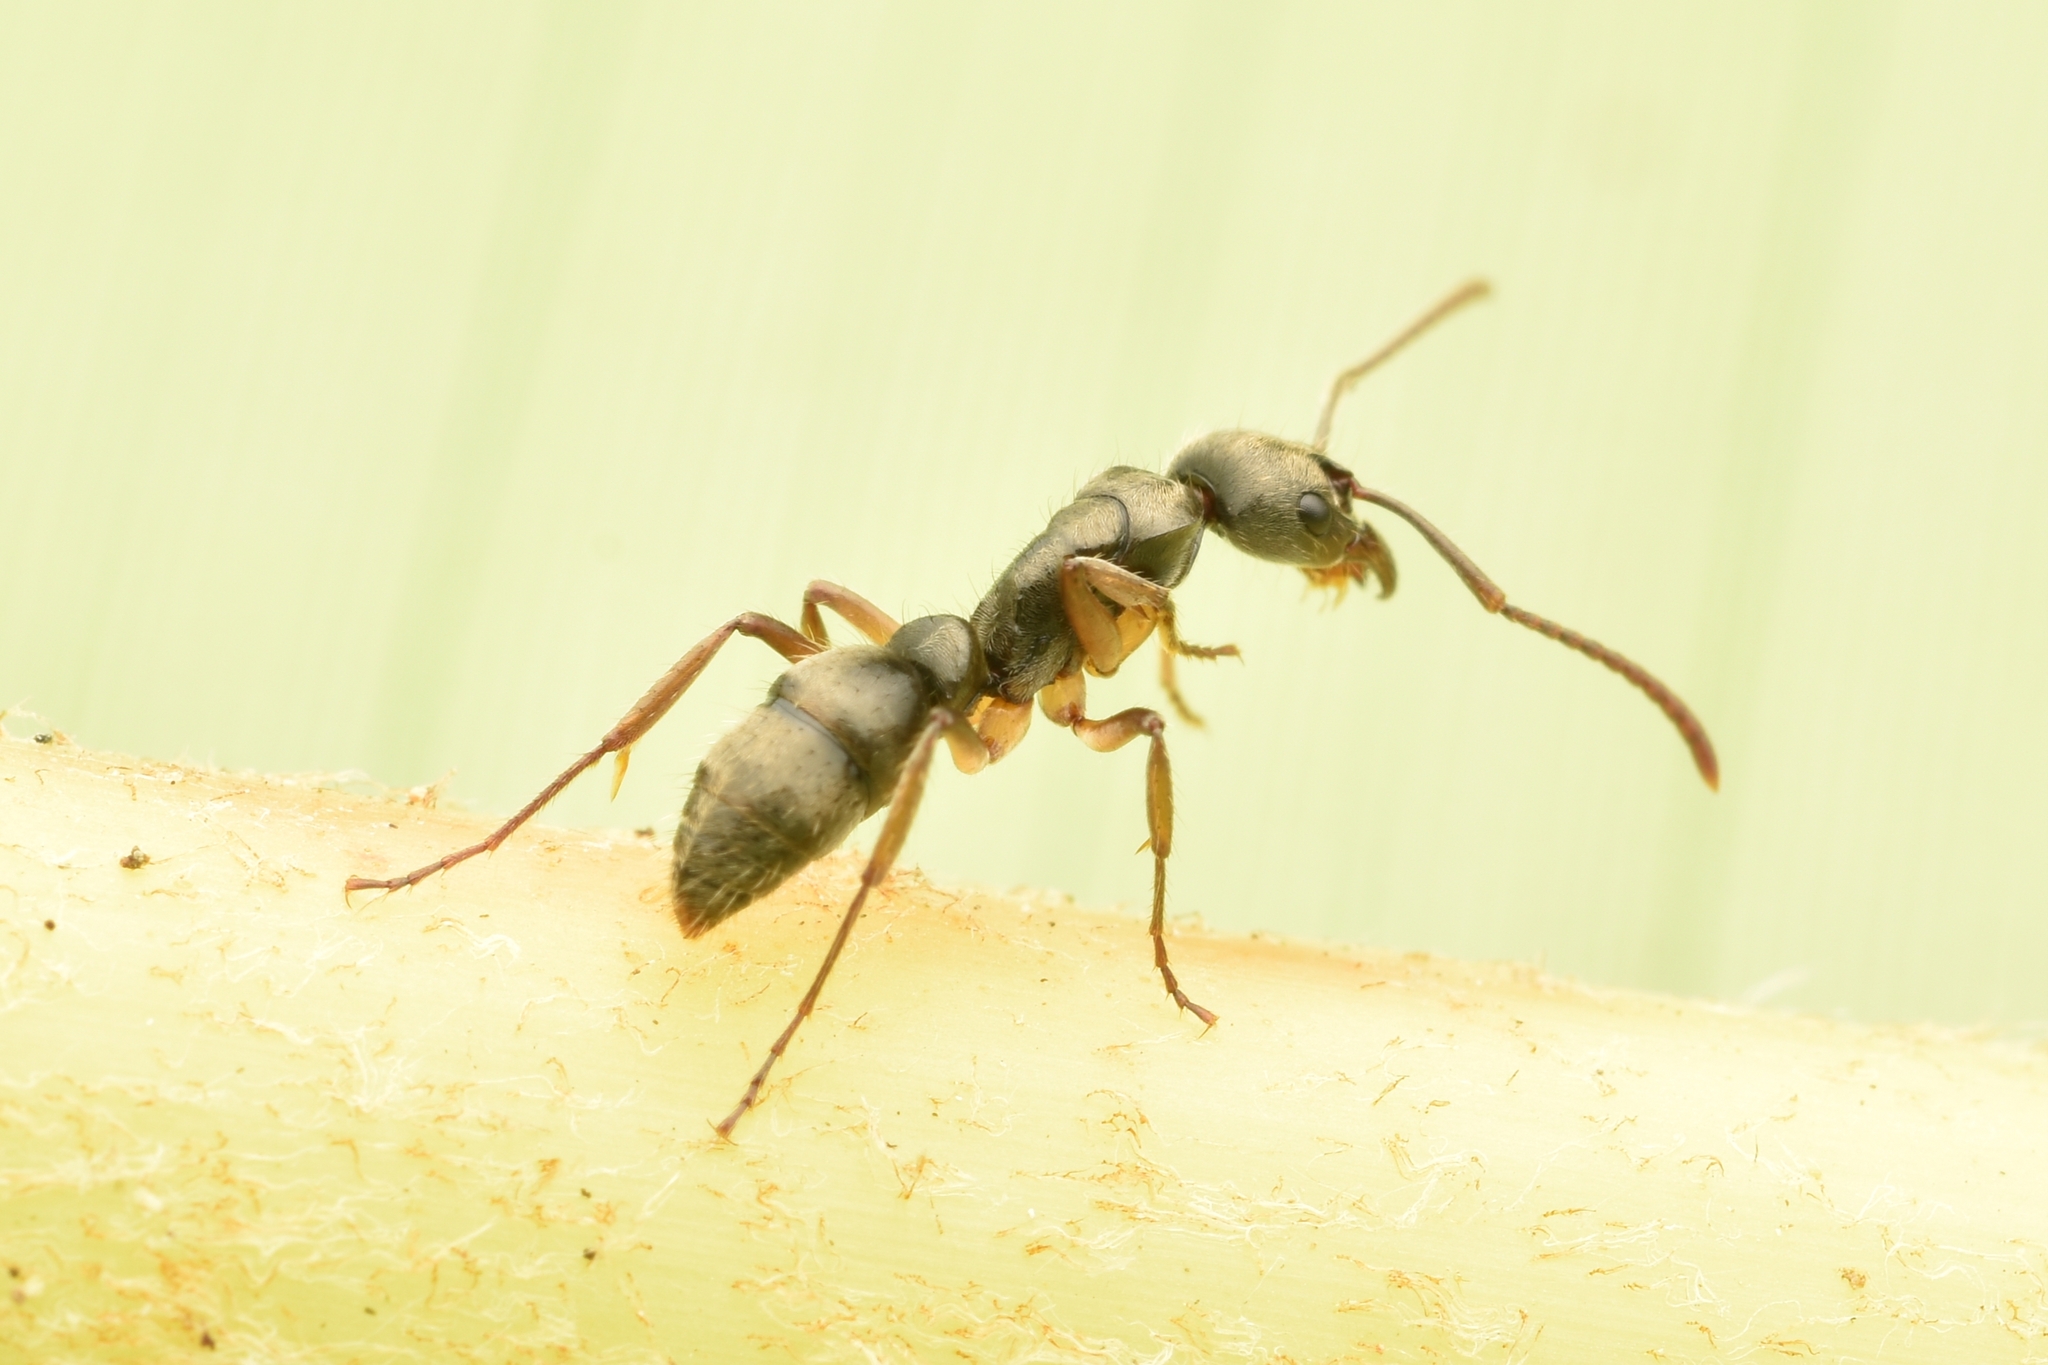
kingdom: Animalia
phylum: Arthropoda
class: Insecta
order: Hymenoptera
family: Formicidae
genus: Pachycondyla
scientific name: Pachycondyla unidentata
